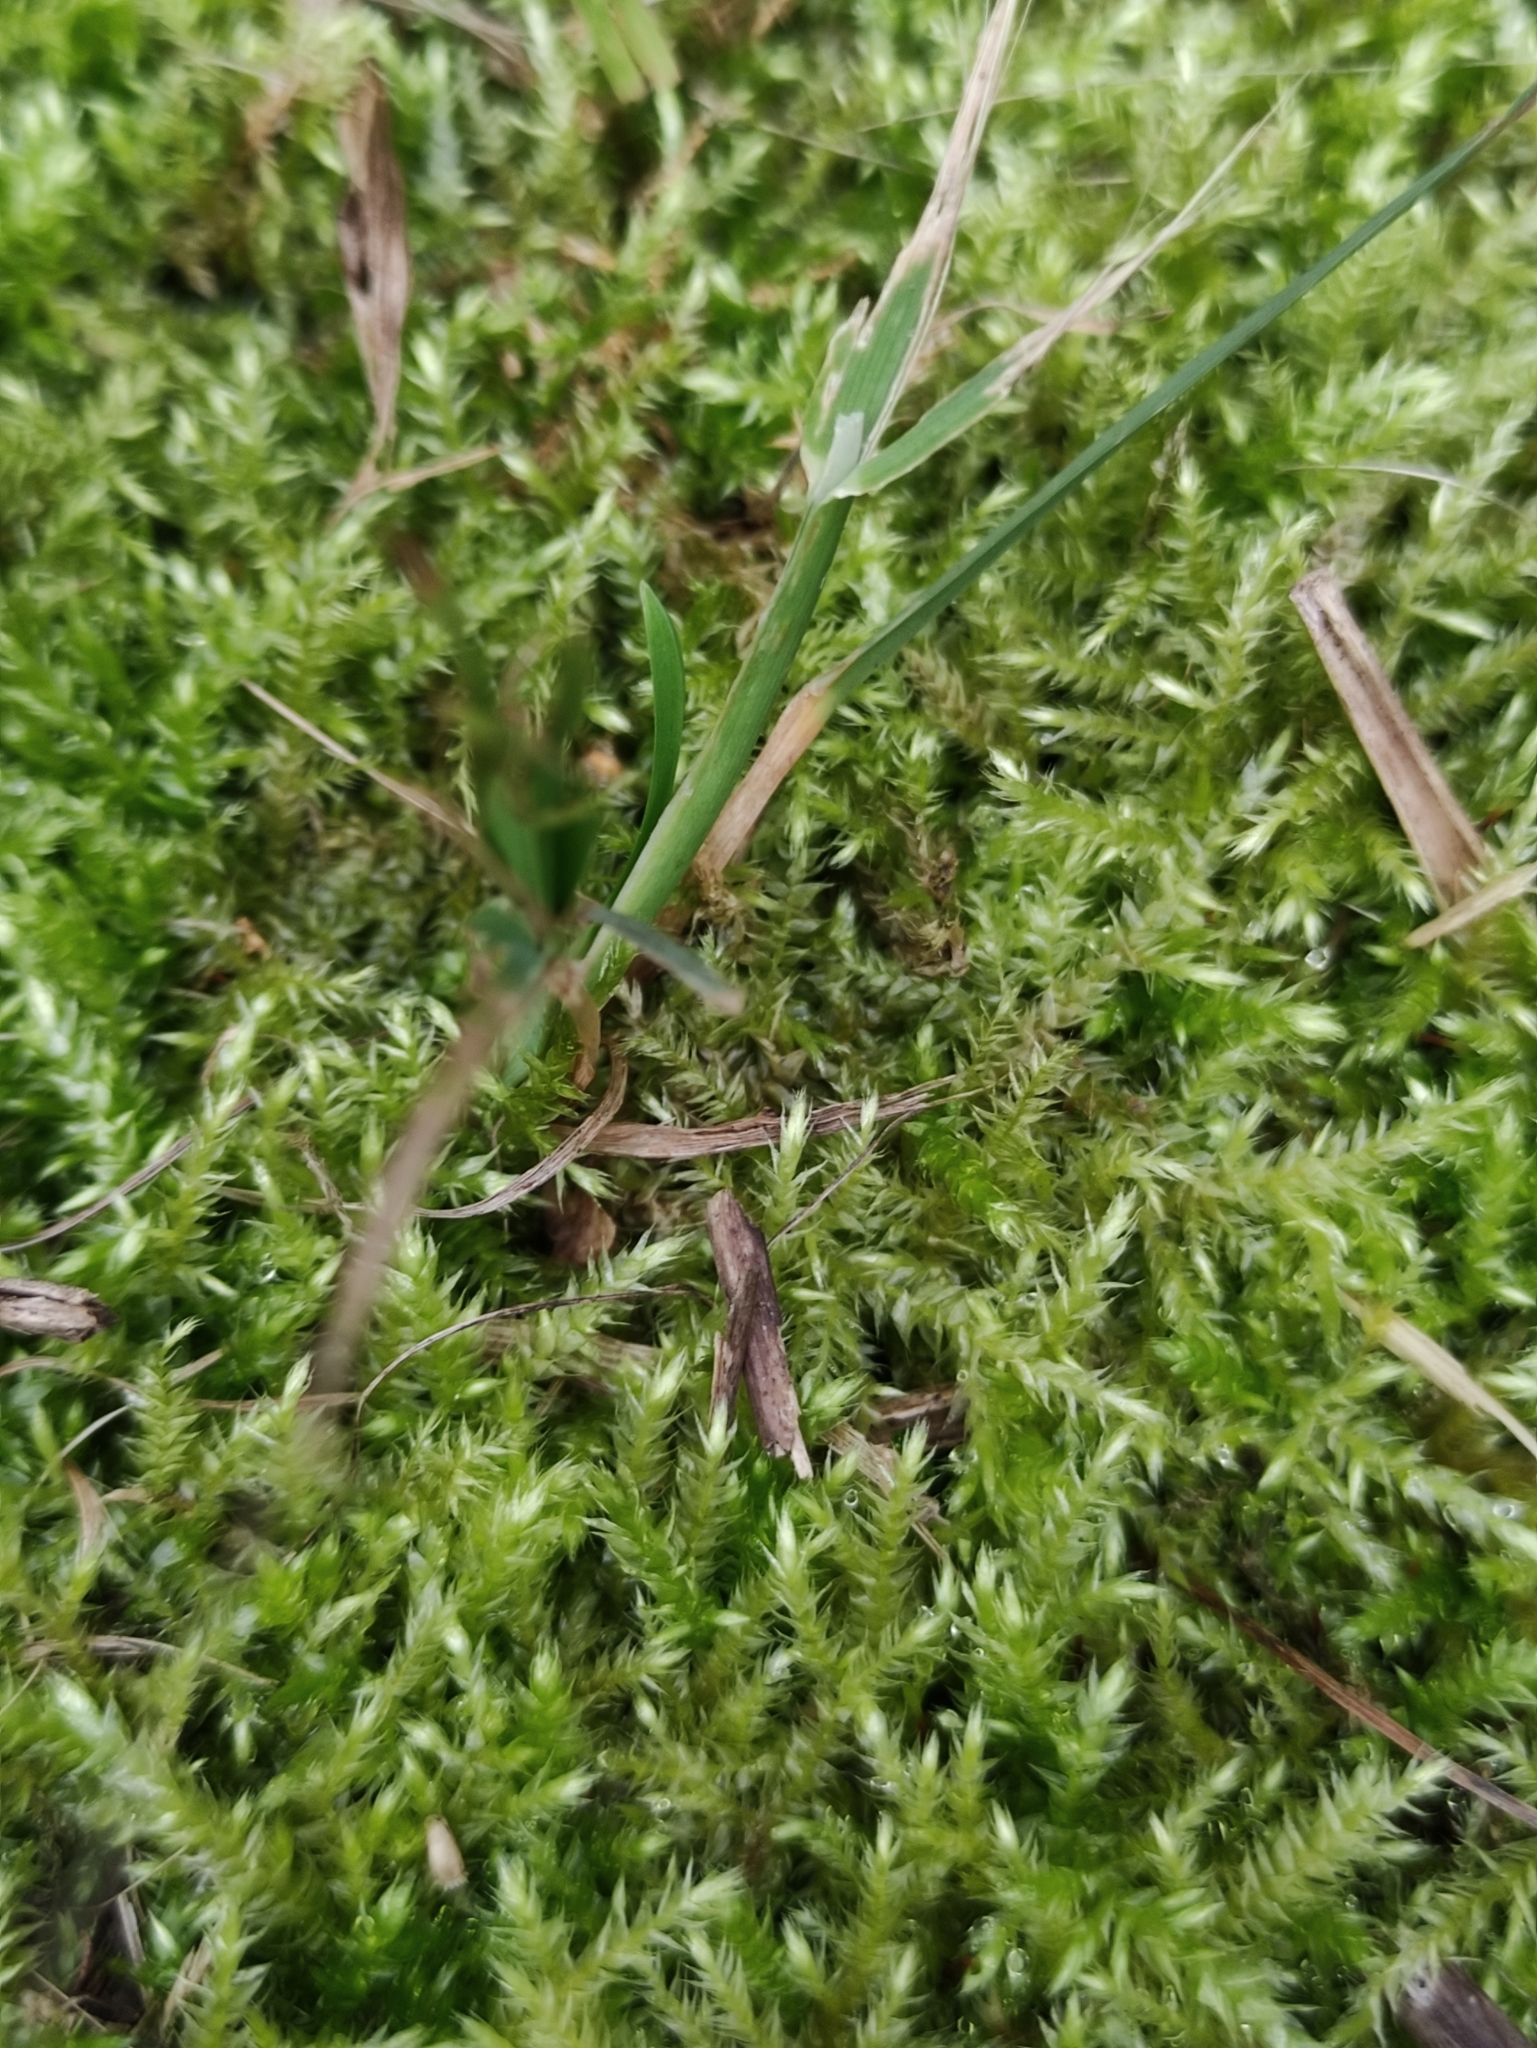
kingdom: Plantae
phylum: Bryophyta
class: Bryopsida
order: Hypnales
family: Brachytheciaceae
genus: Brachythecium
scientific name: Brachythecium rutabulum
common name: Rough-stalked feather-moss
